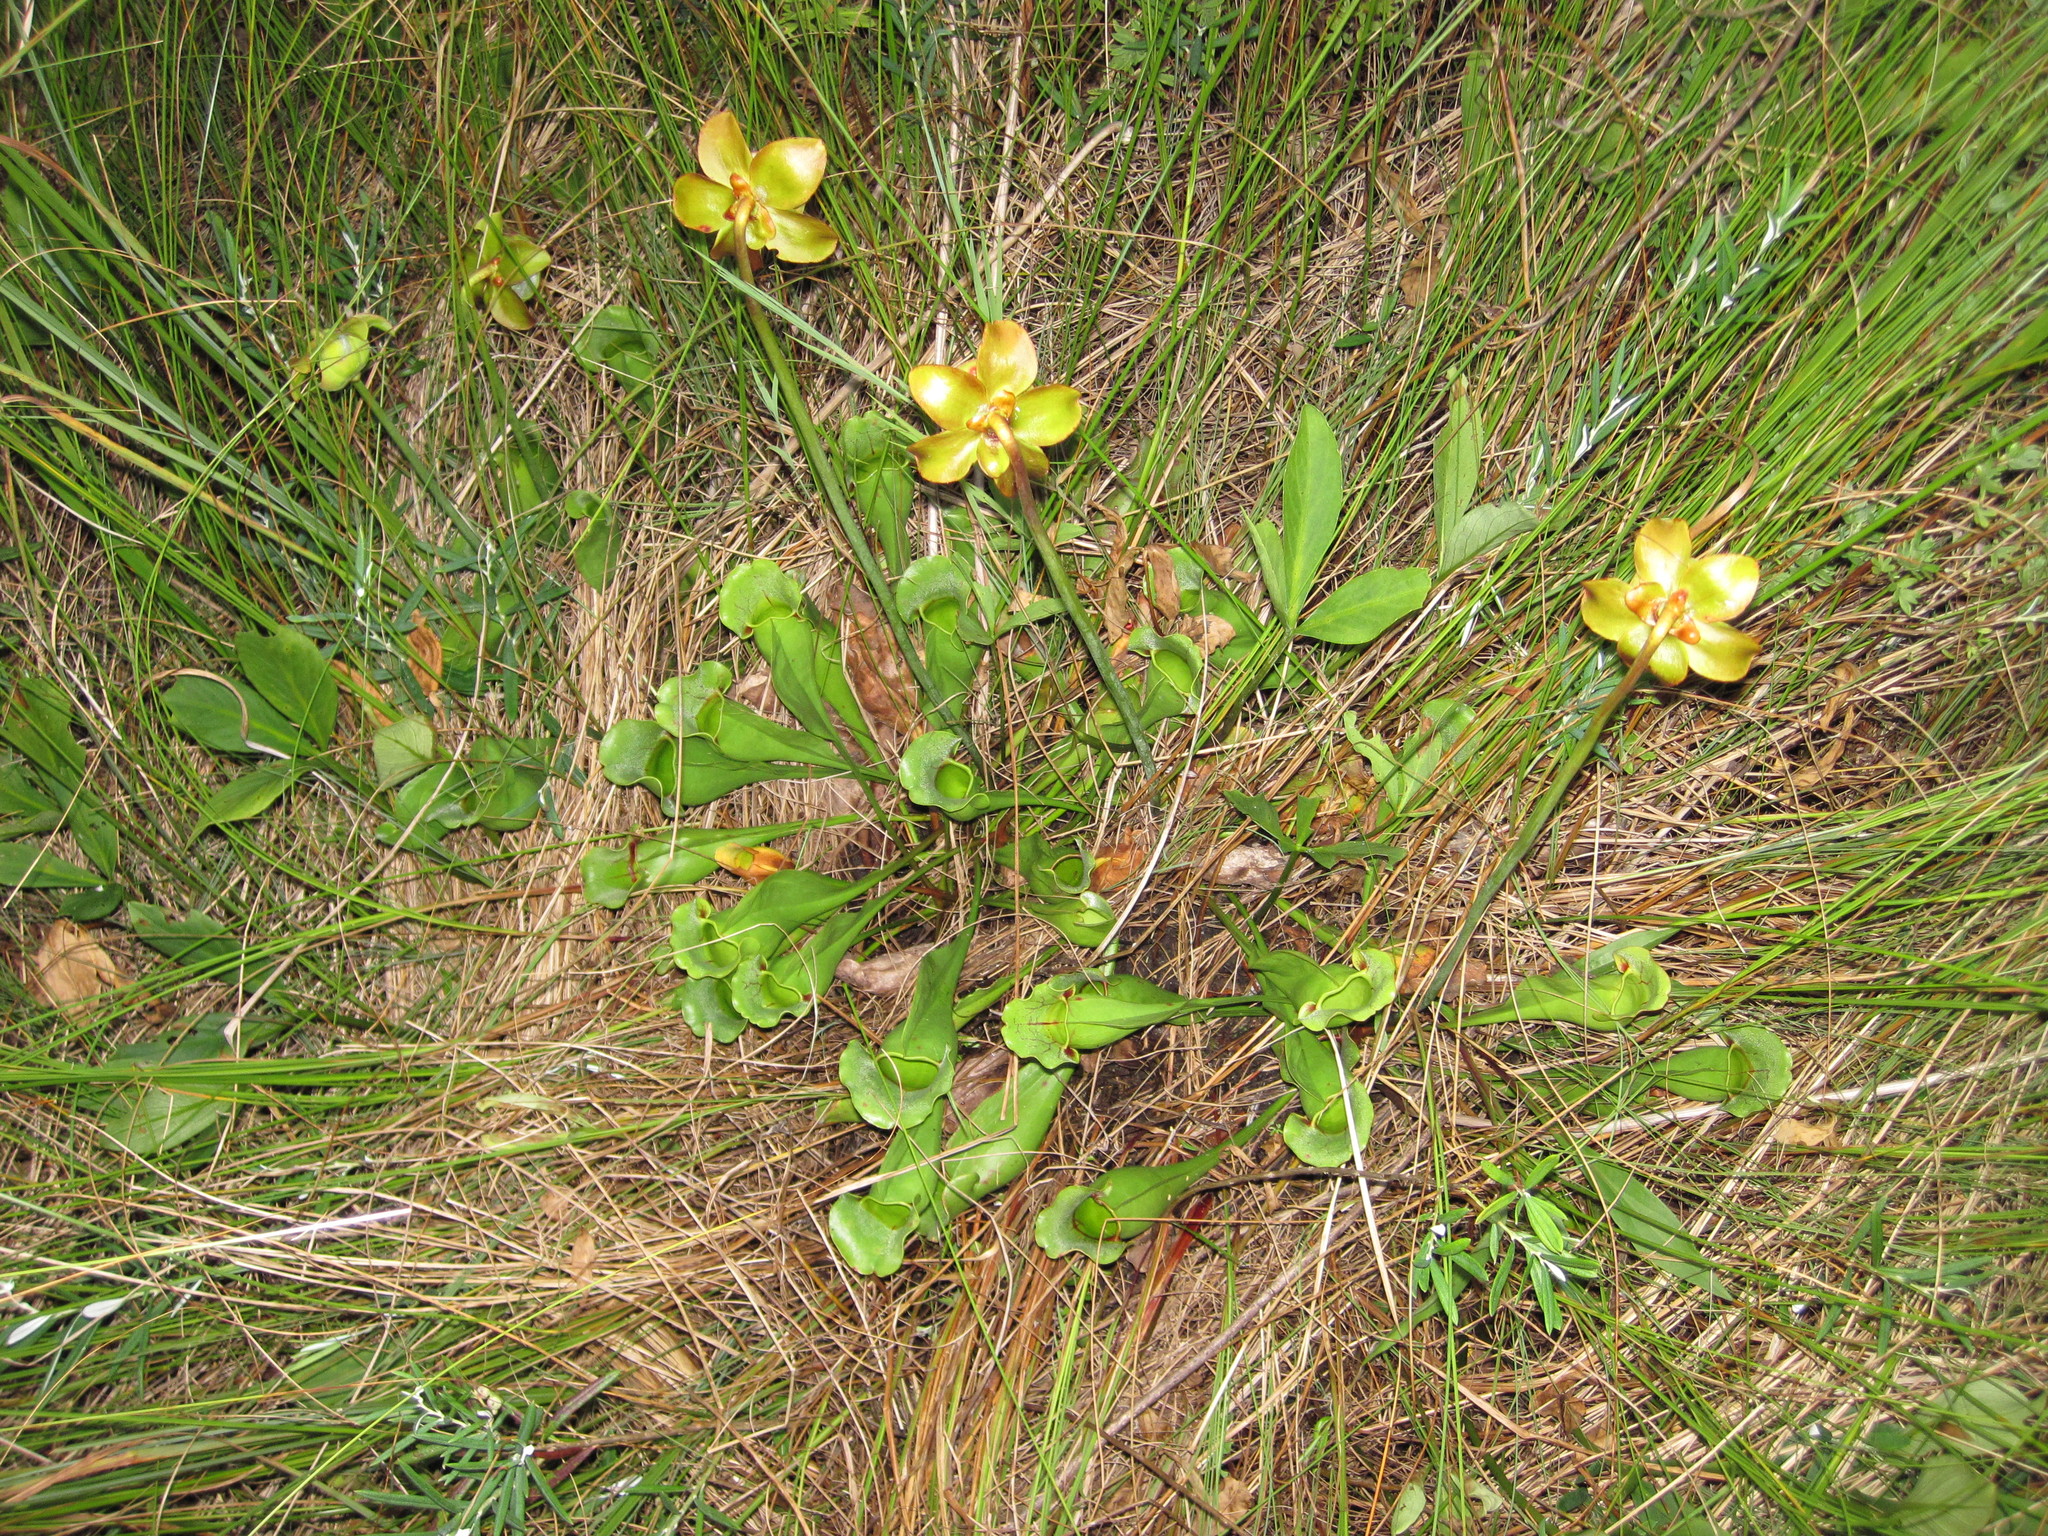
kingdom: Plantae
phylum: Tracheophyta
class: Magnoliopsida
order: Ericales
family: Sarraceniaceae
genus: Sarracenia
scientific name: Sarracenia purpurea
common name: Pitcherplant
